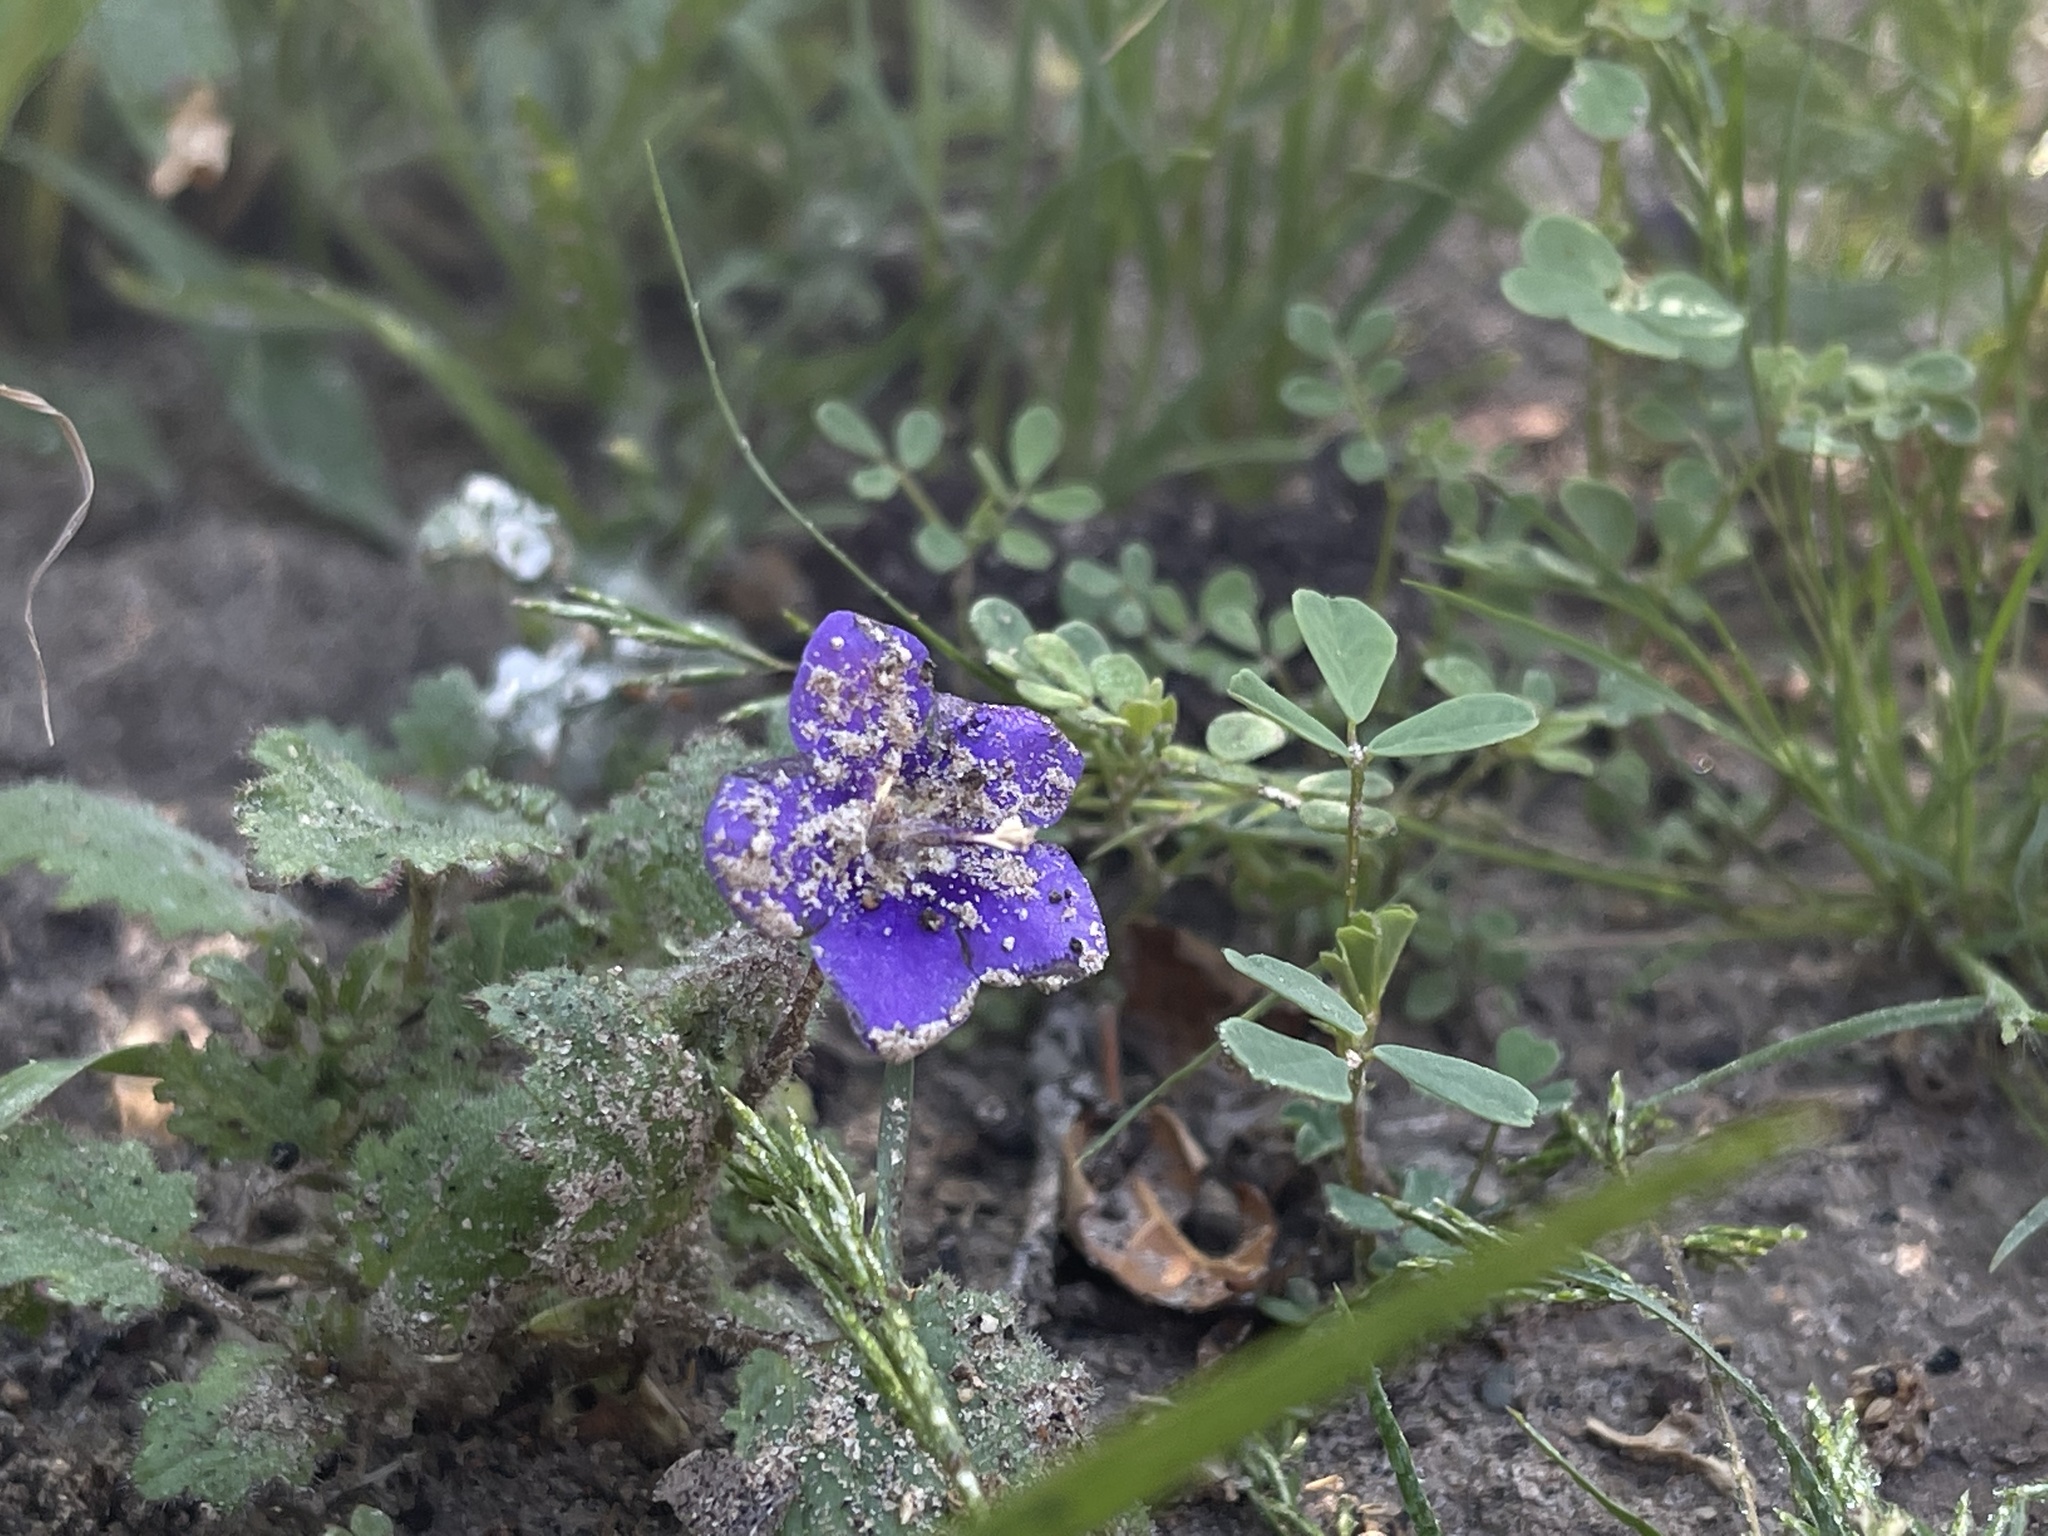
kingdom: Plantae
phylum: Tracheophyta
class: Magnoliopsida
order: Boraginales
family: Hydrophyllaceae
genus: Phacelia
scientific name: Phacelia parryi
